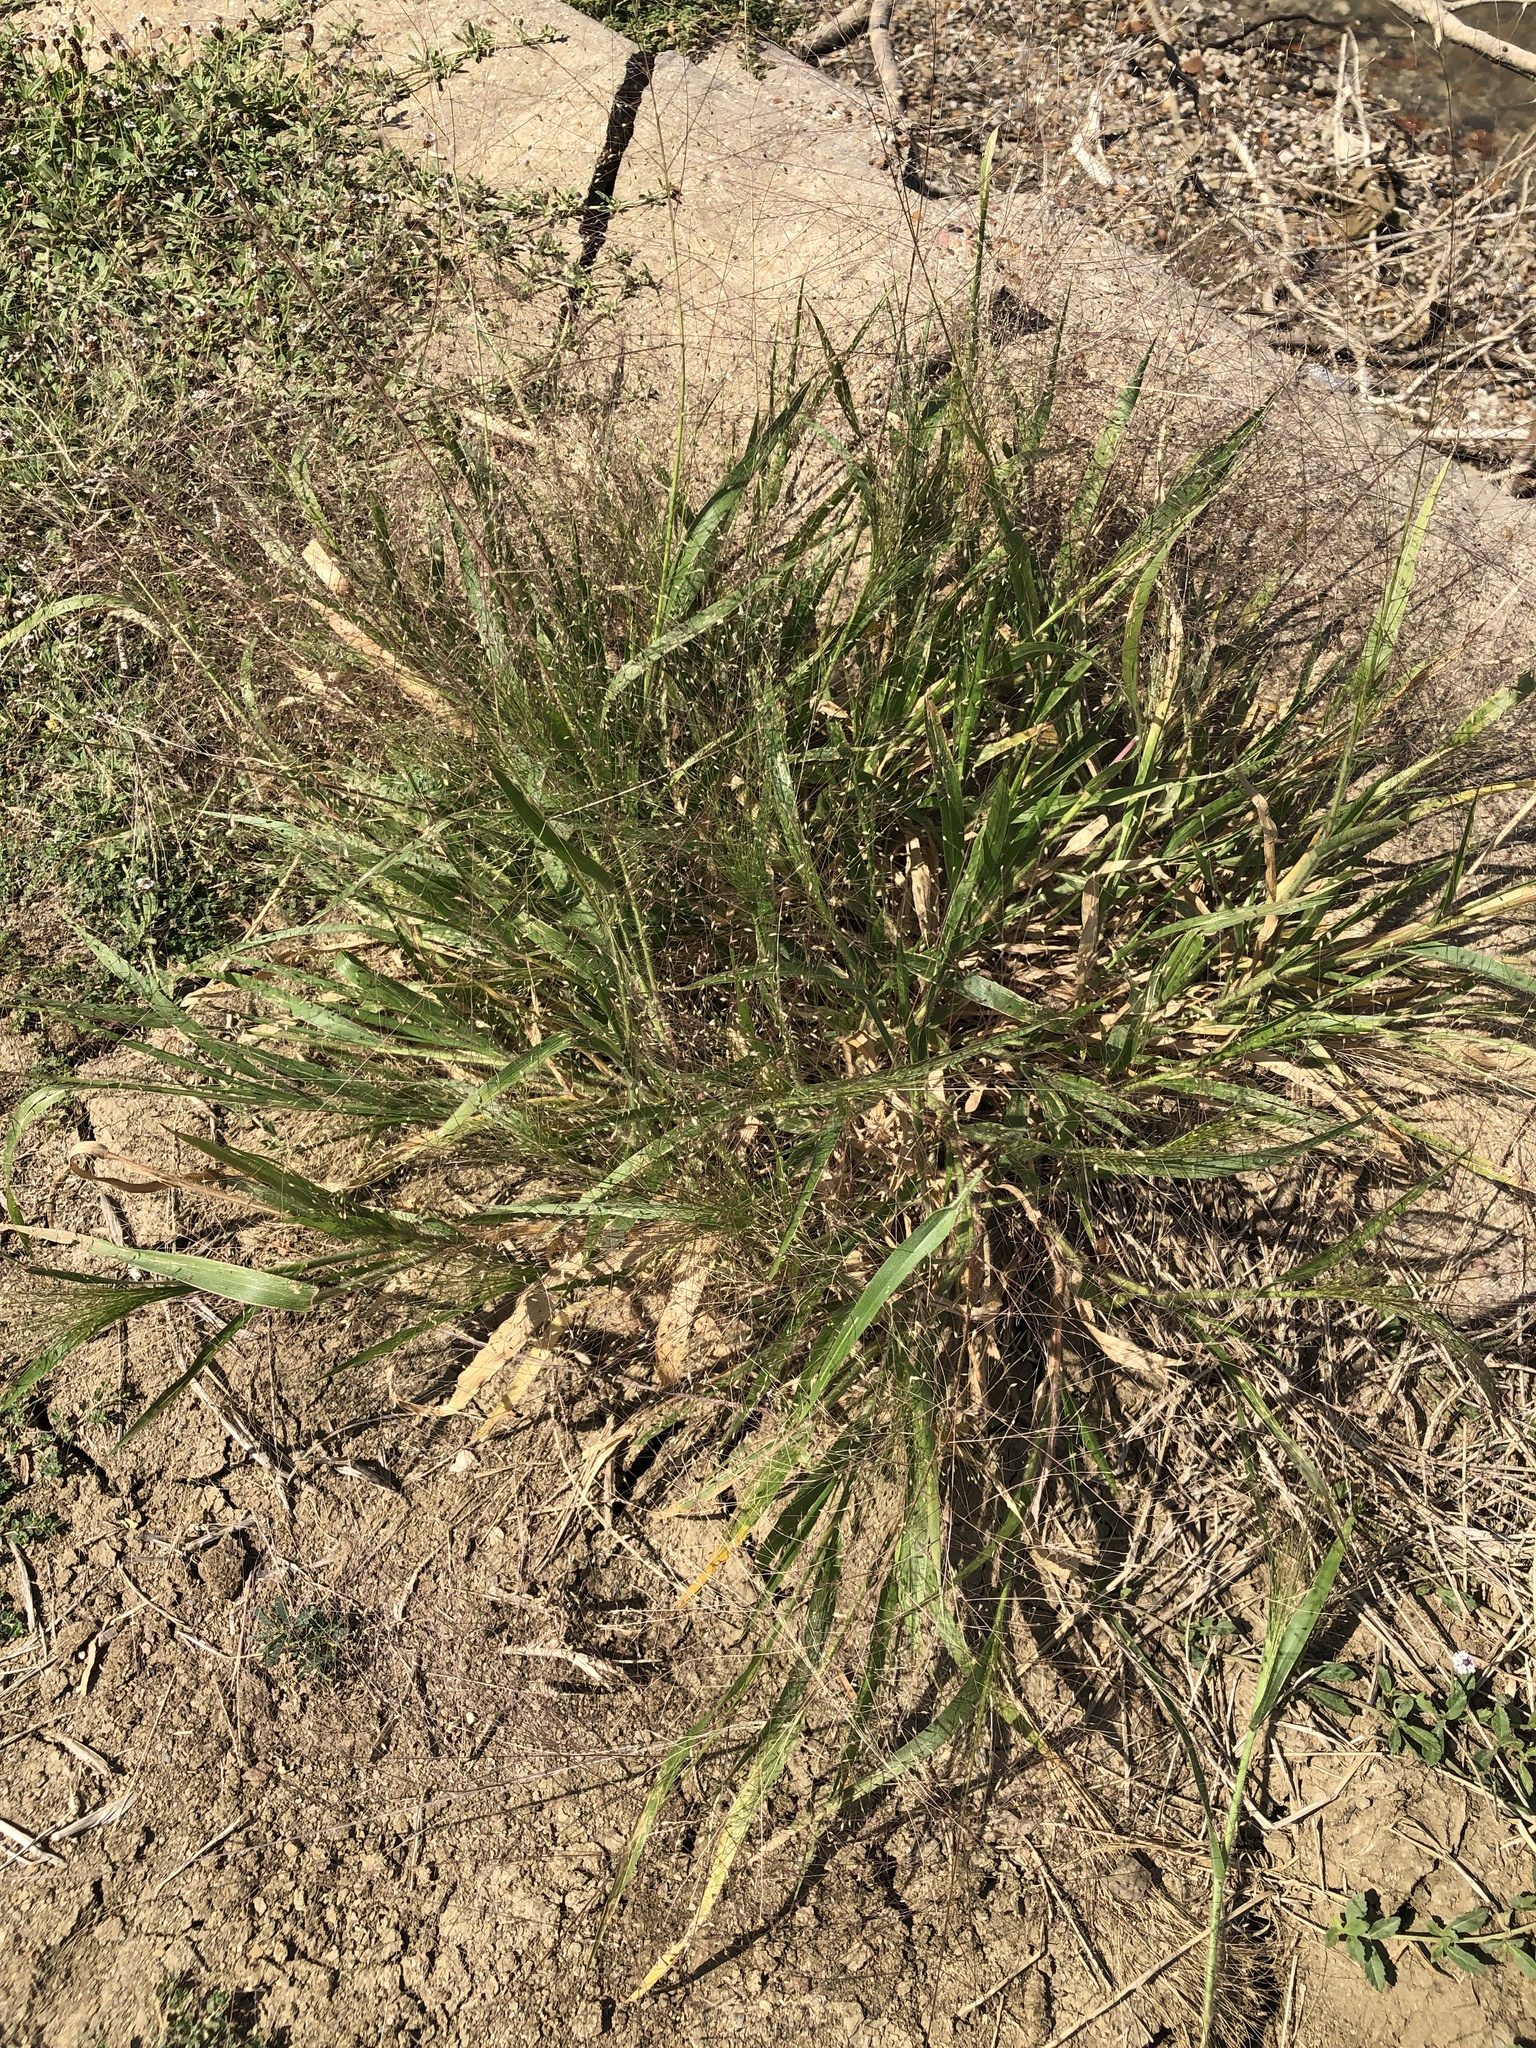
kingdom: Plantae
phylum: Tracheophyta
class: Liliopsida
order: Poales
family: Poaceae
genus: Panicum
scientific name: Panicum capillare
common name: Witch-grass
